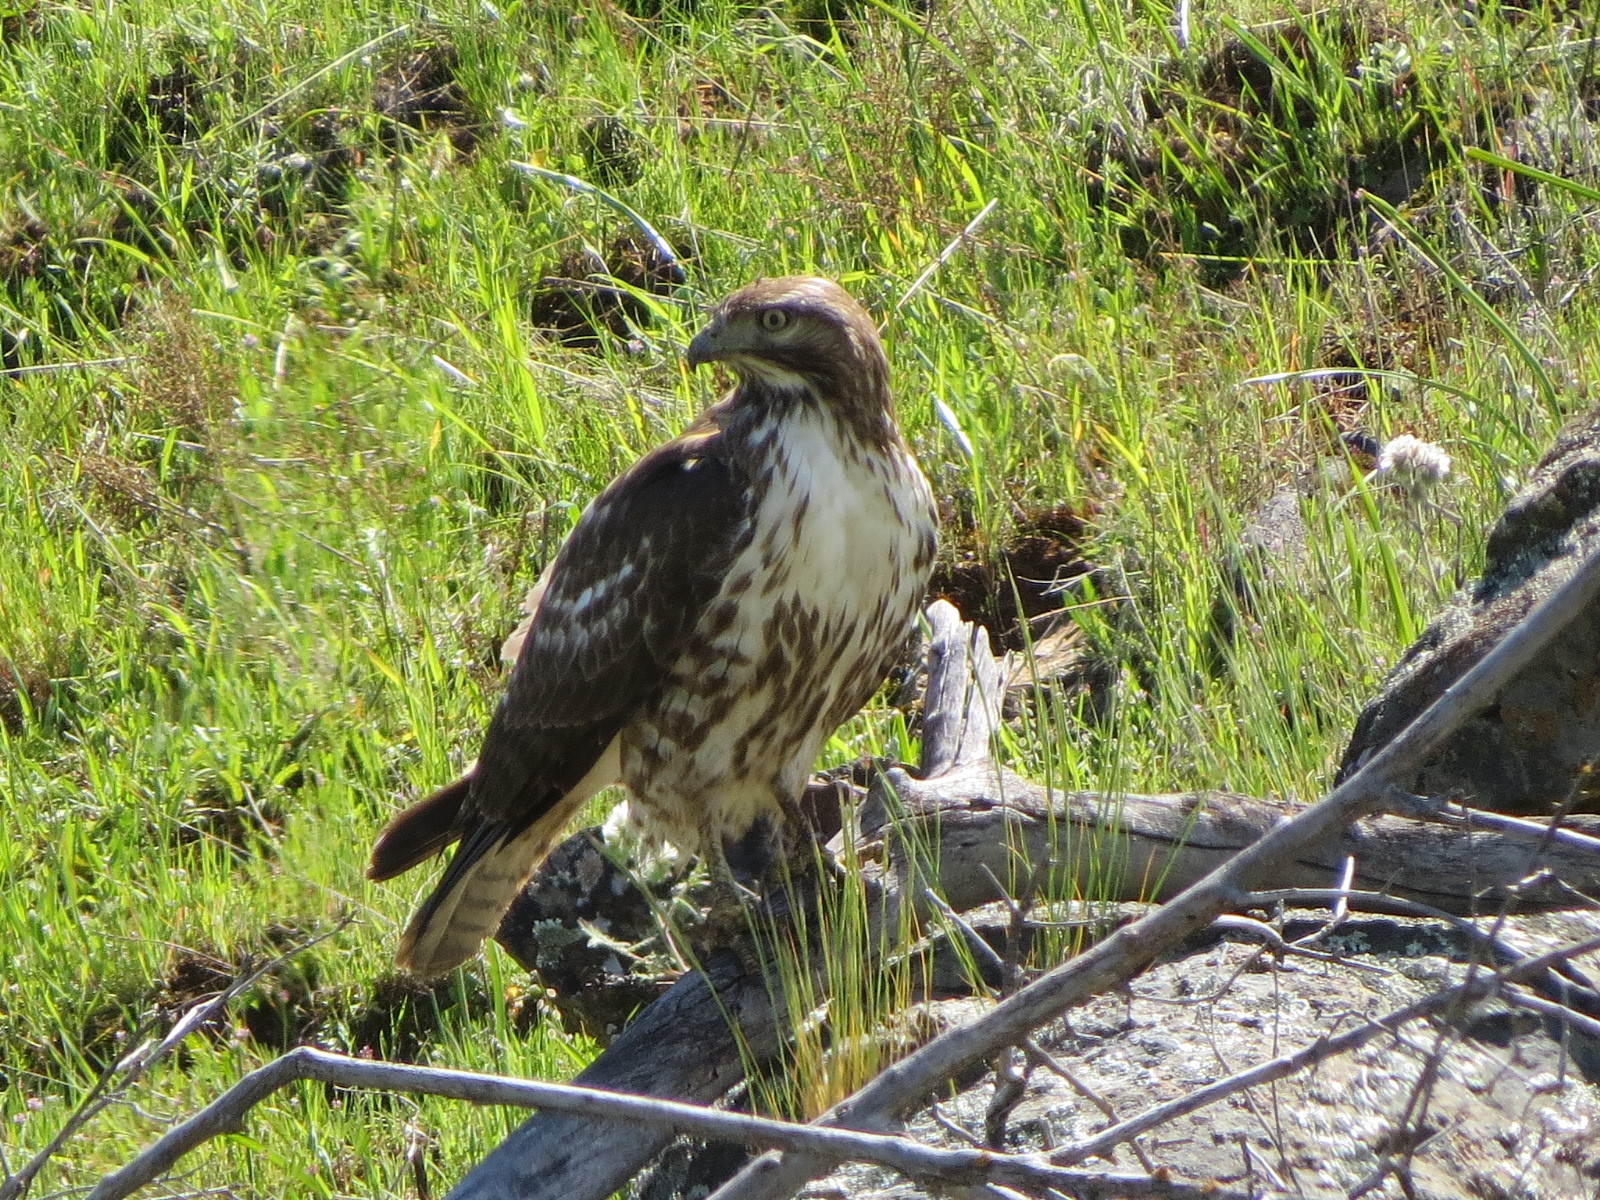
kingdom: Animalia
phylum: Chordata
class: Aves
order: Accipitriformes
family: Accipitridae
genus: Buteo
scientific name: Buteo jamaicensis
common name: Red-tailed hawk
